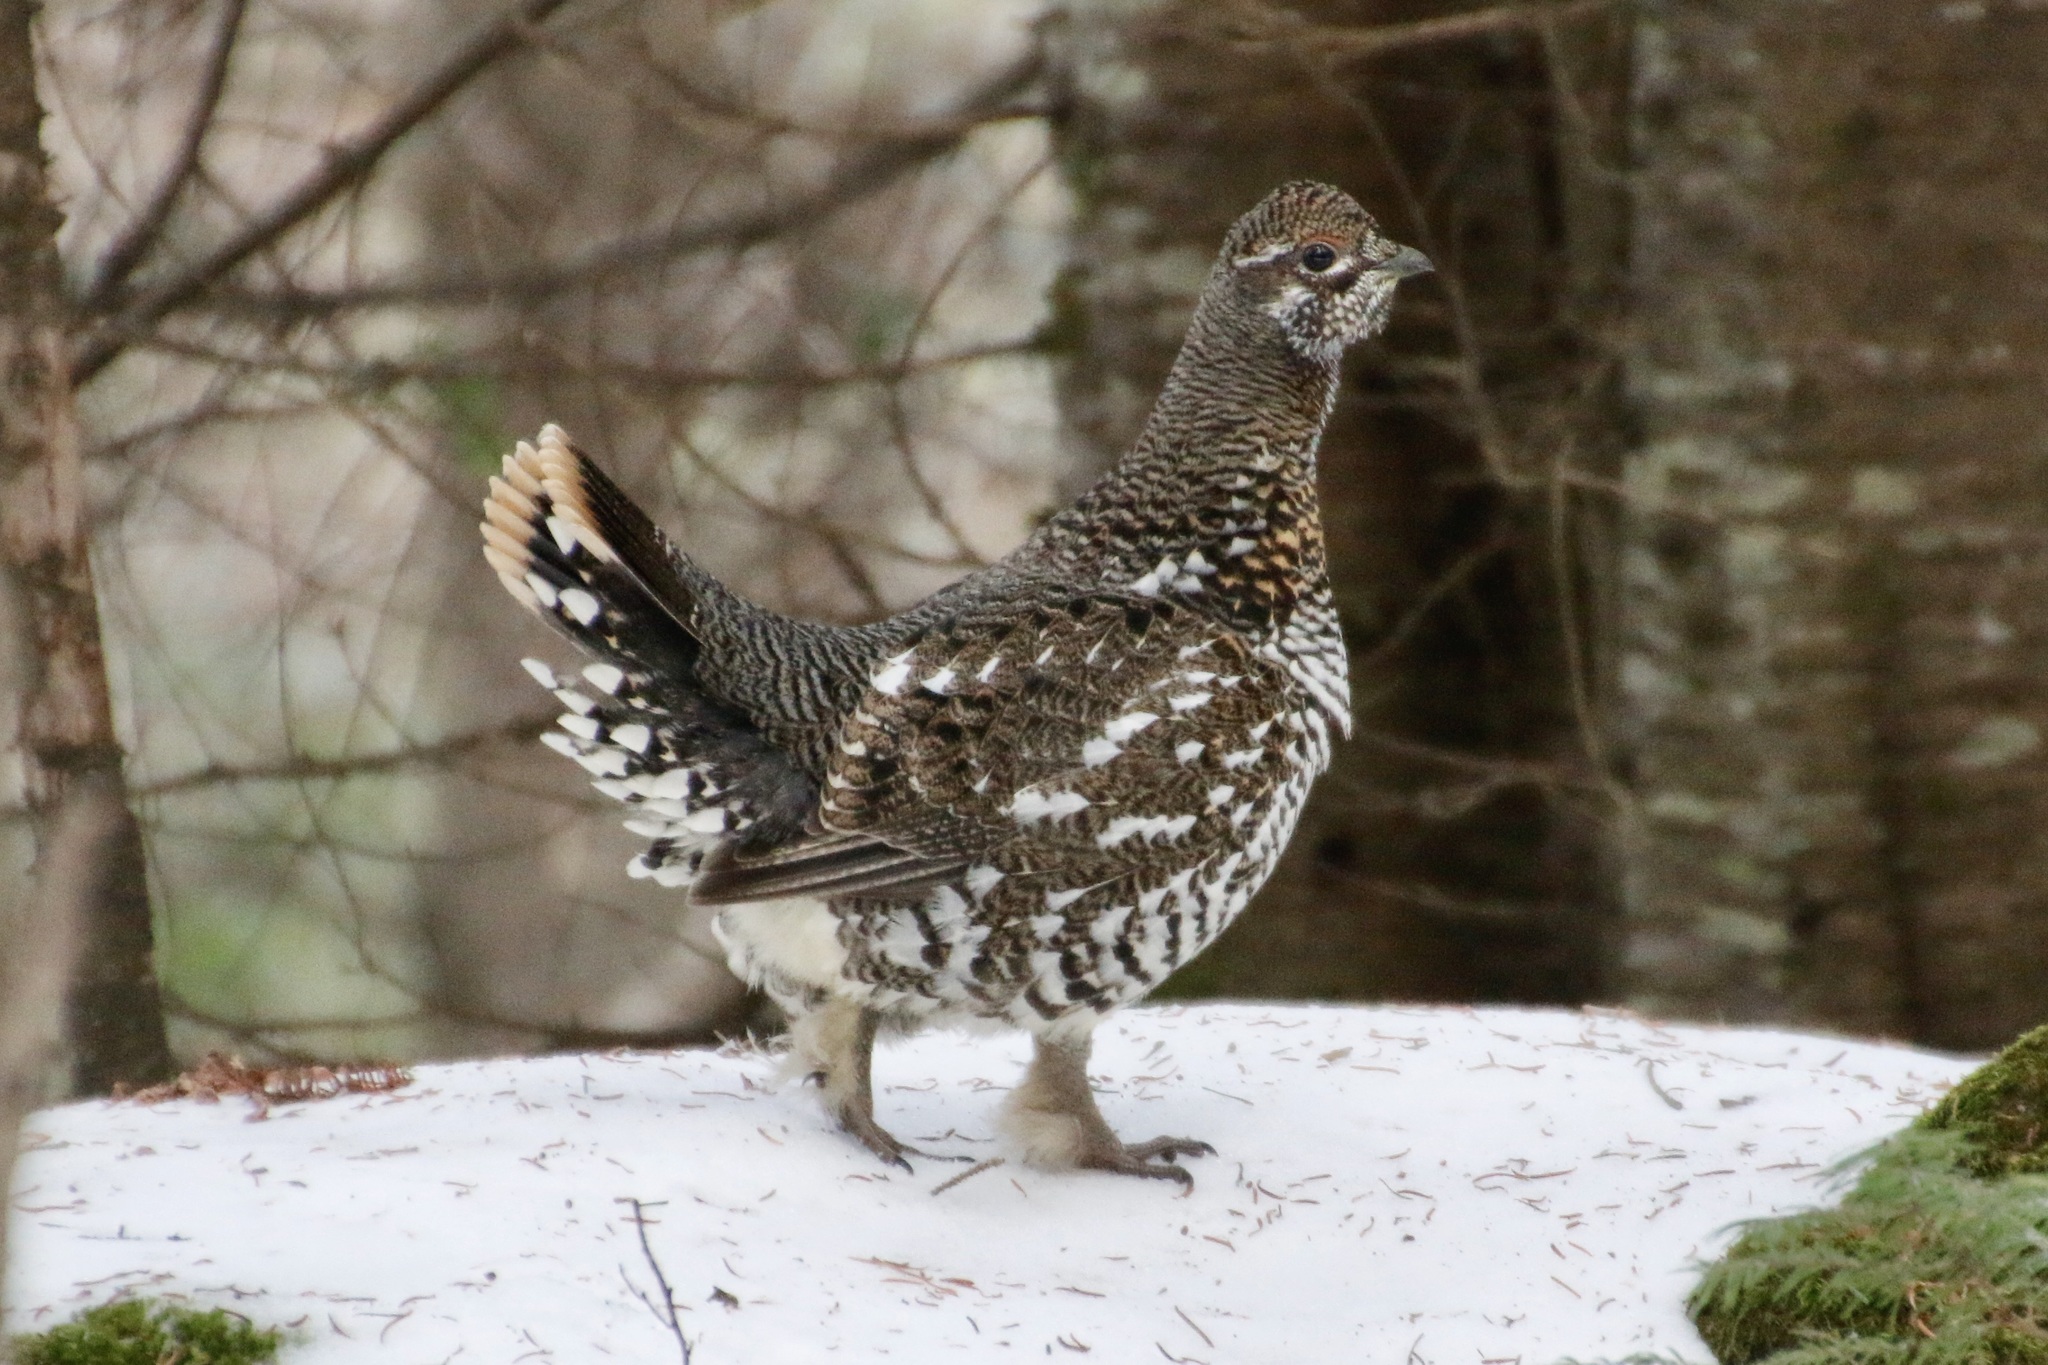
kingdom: Animalia
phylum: Chordata
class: Aves
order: Galliformes
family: Phasianidae
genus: Canachites
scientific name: Canachites canadensis
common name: Spruce grouse
